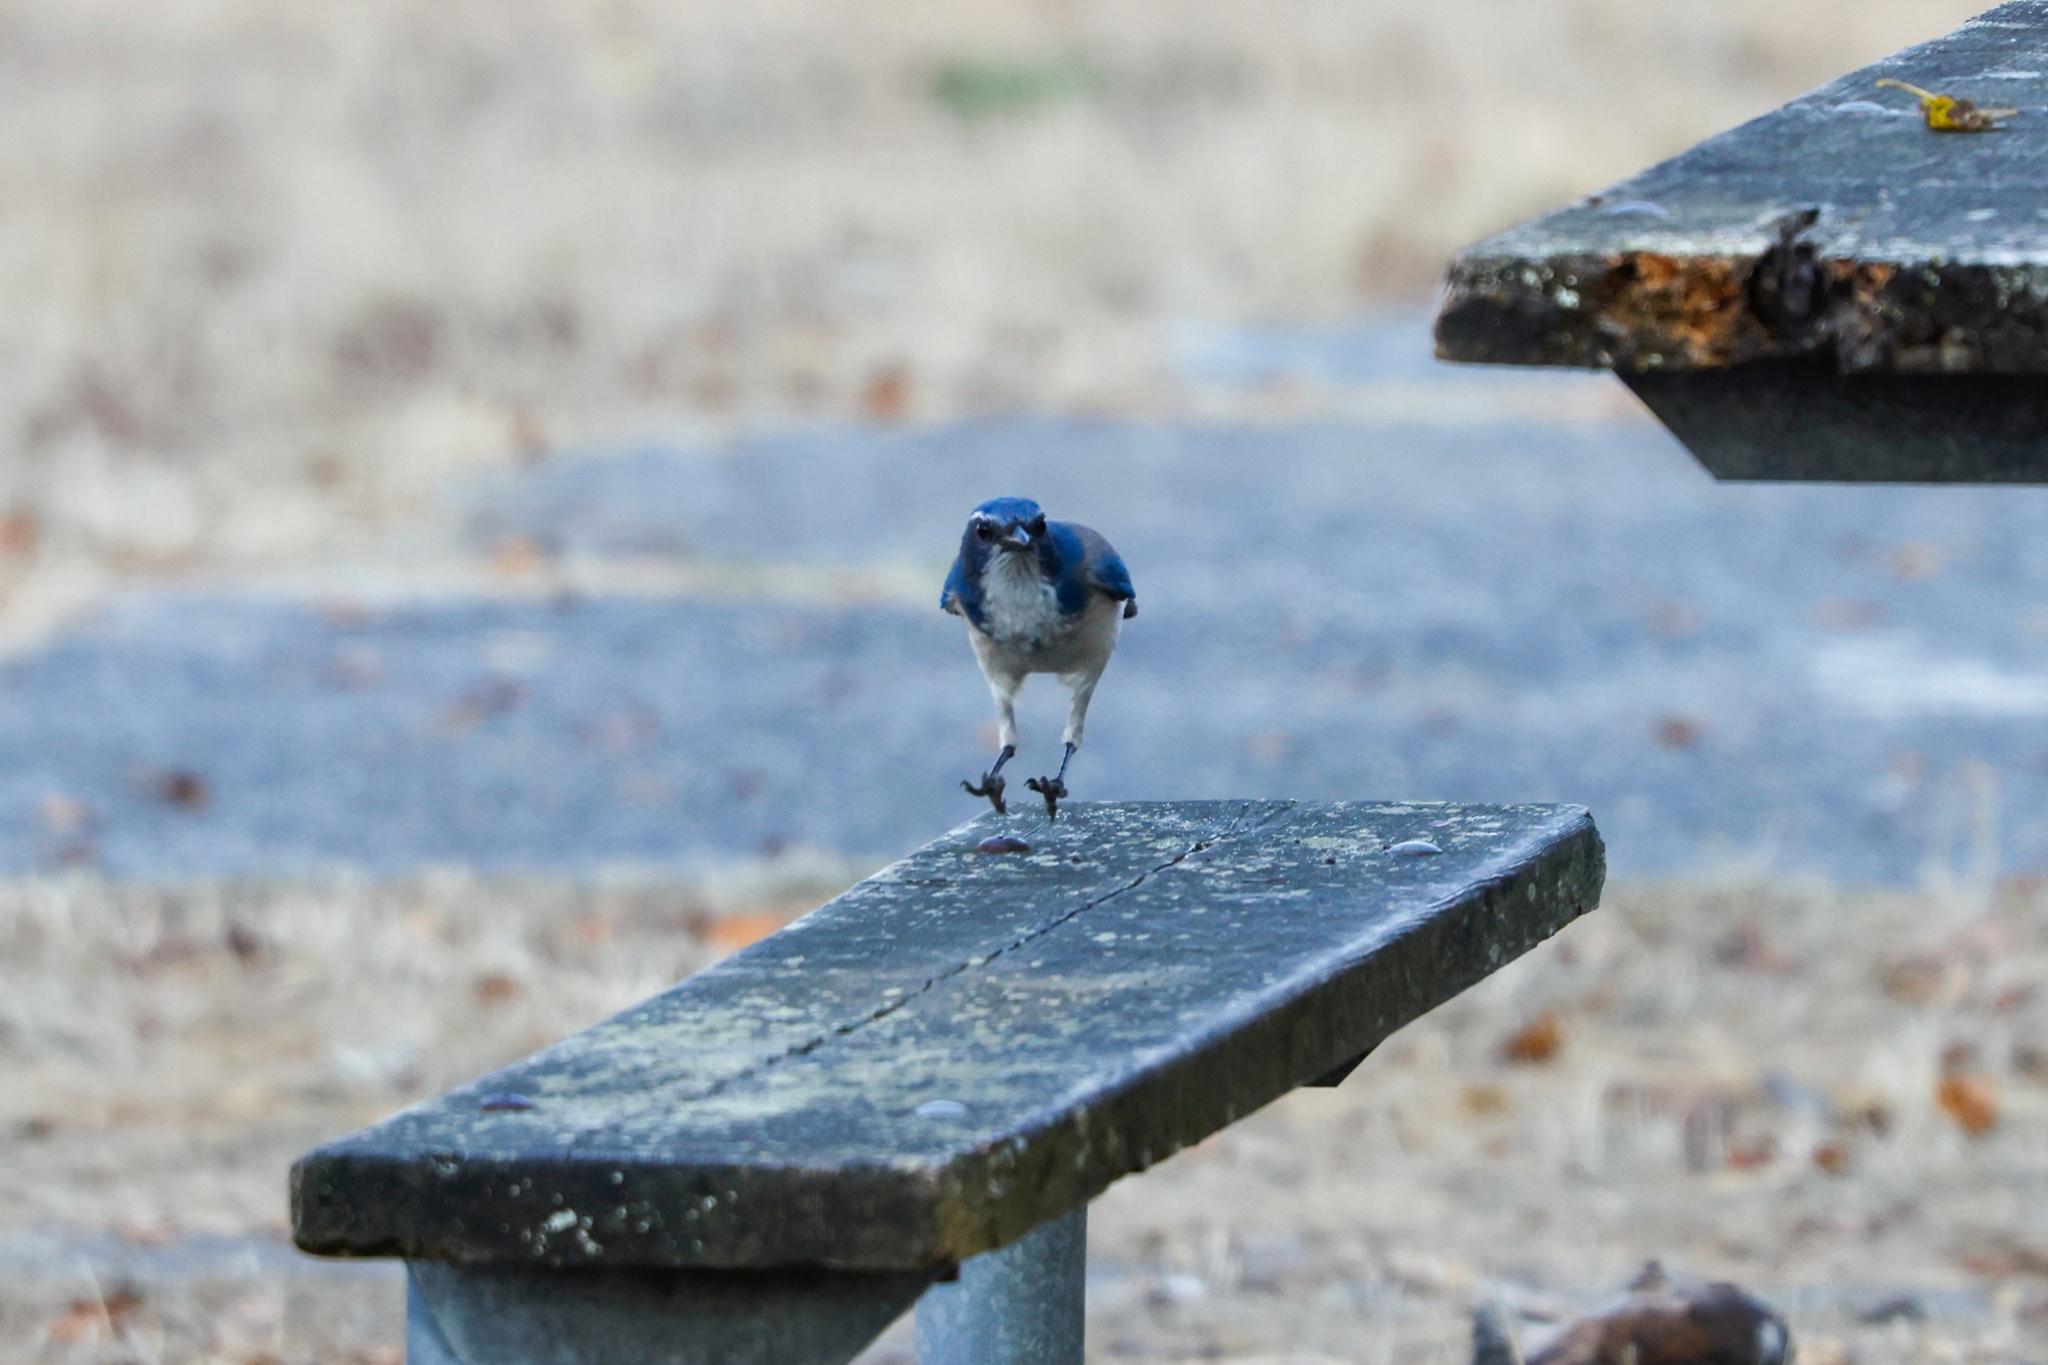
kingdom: Animalia
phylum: Chordata
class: Aves
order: Passeriformes
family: Corvidae
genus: Aphelocoma
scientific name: Aphelocoma californica
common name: California scrub-jay
